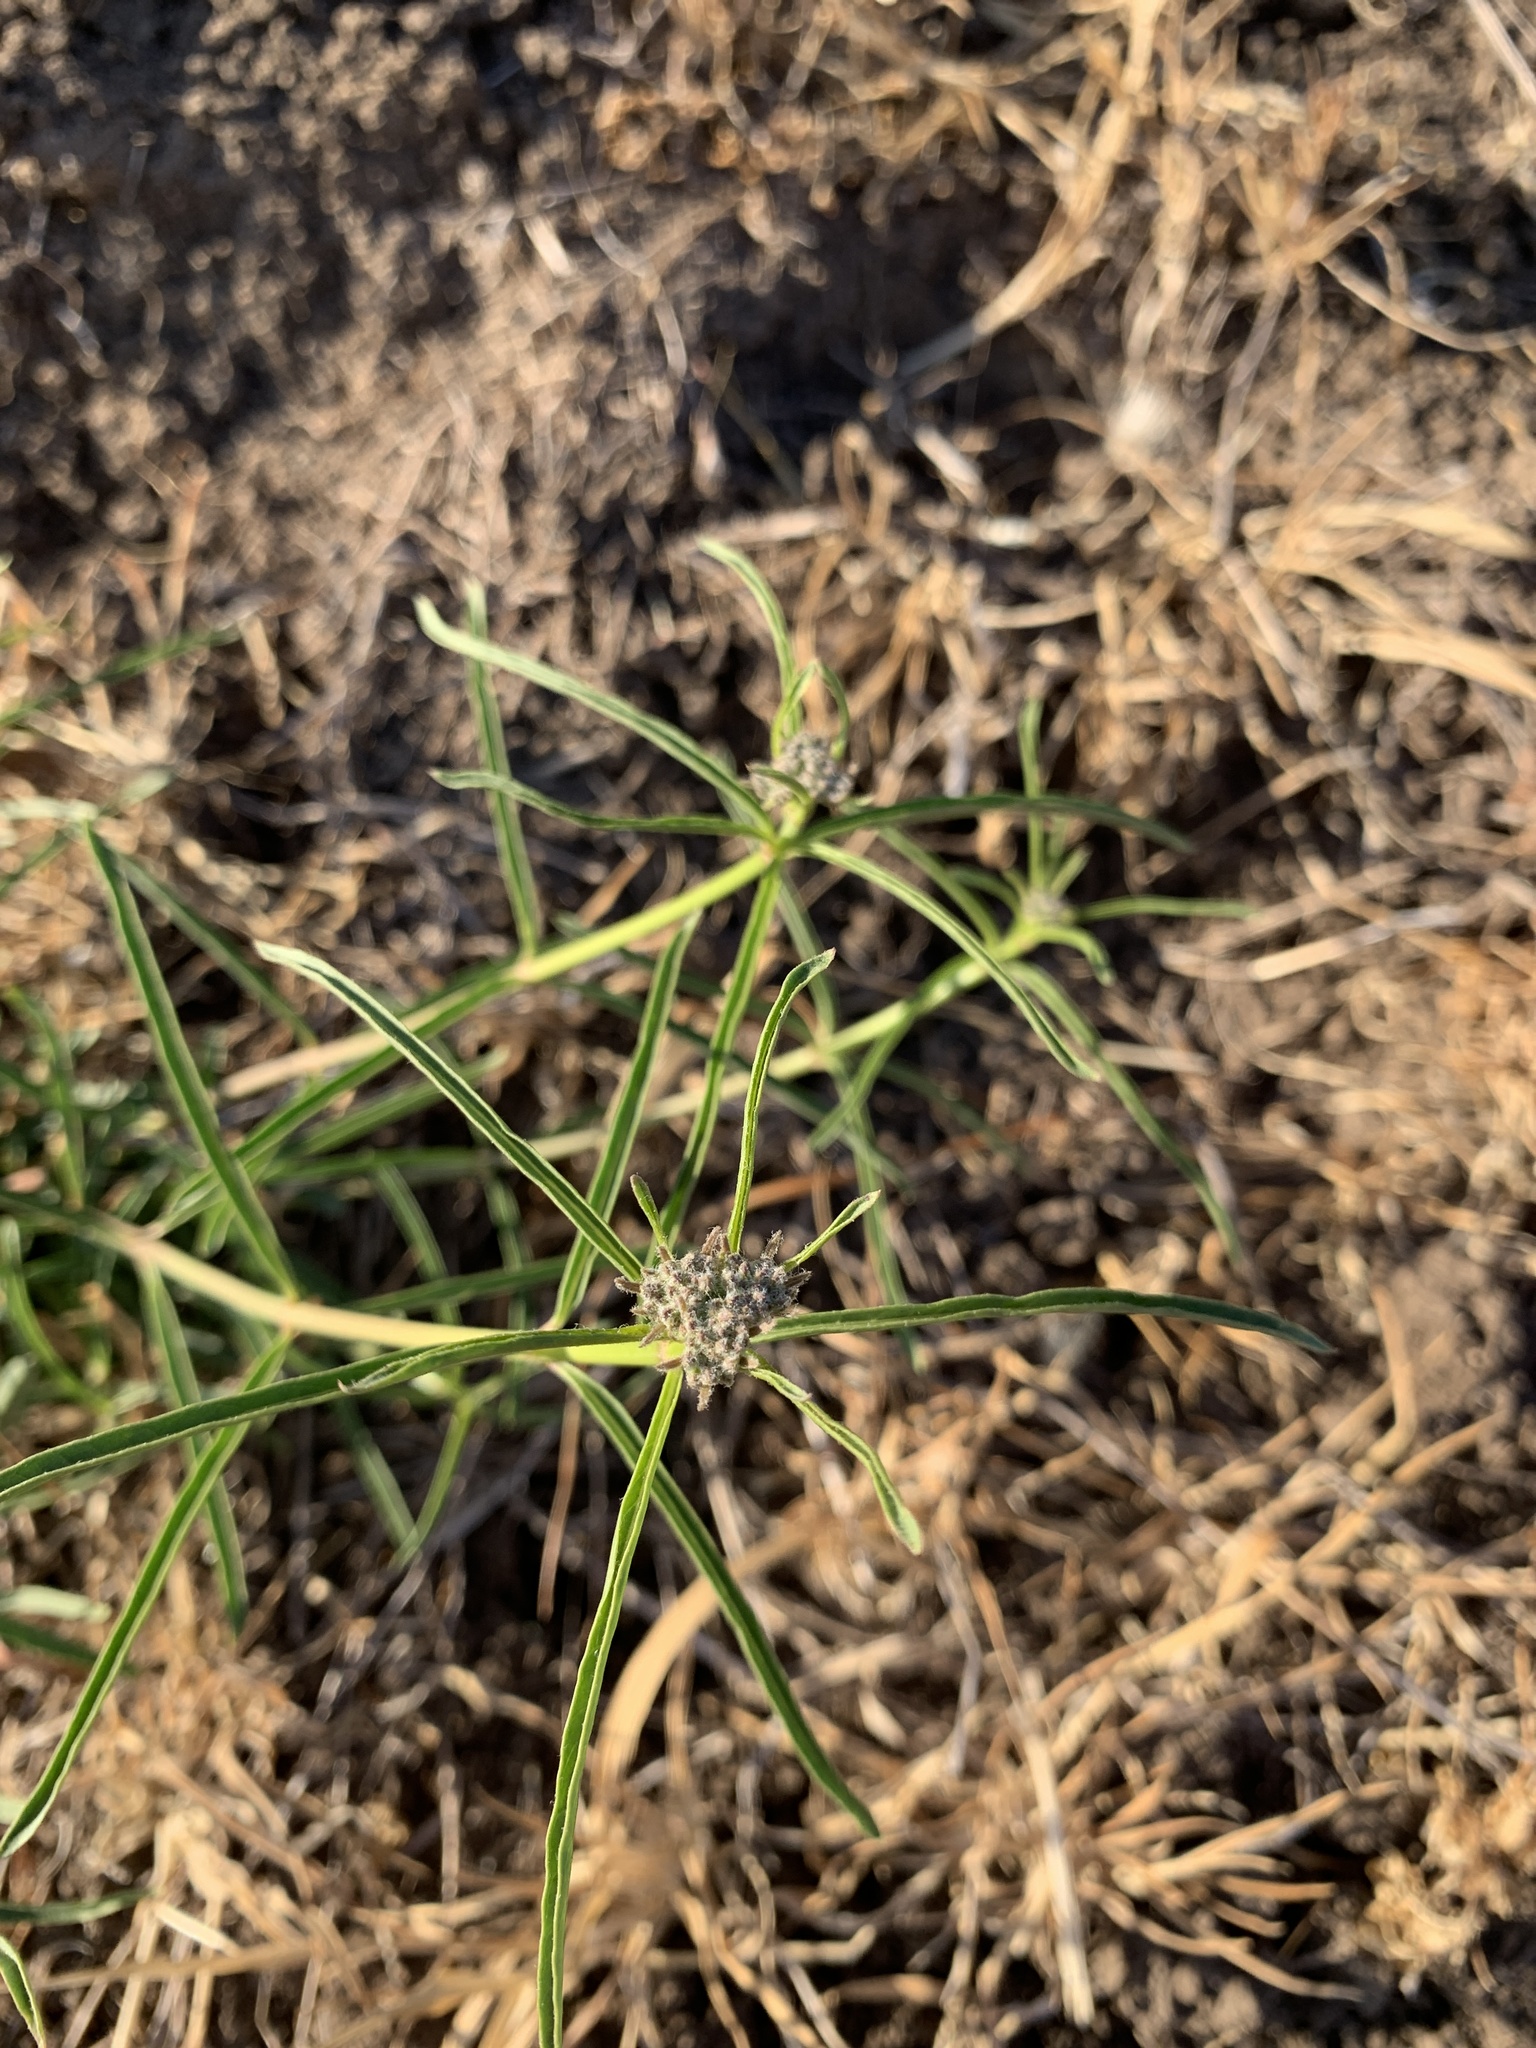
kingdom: Plantae
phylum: Tracheophyta
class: Magnoliopsida
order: Gentianales
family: Apocynaceae
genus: Asclepias
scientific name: Asclepias fascicularis
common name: Mexican milkweed
